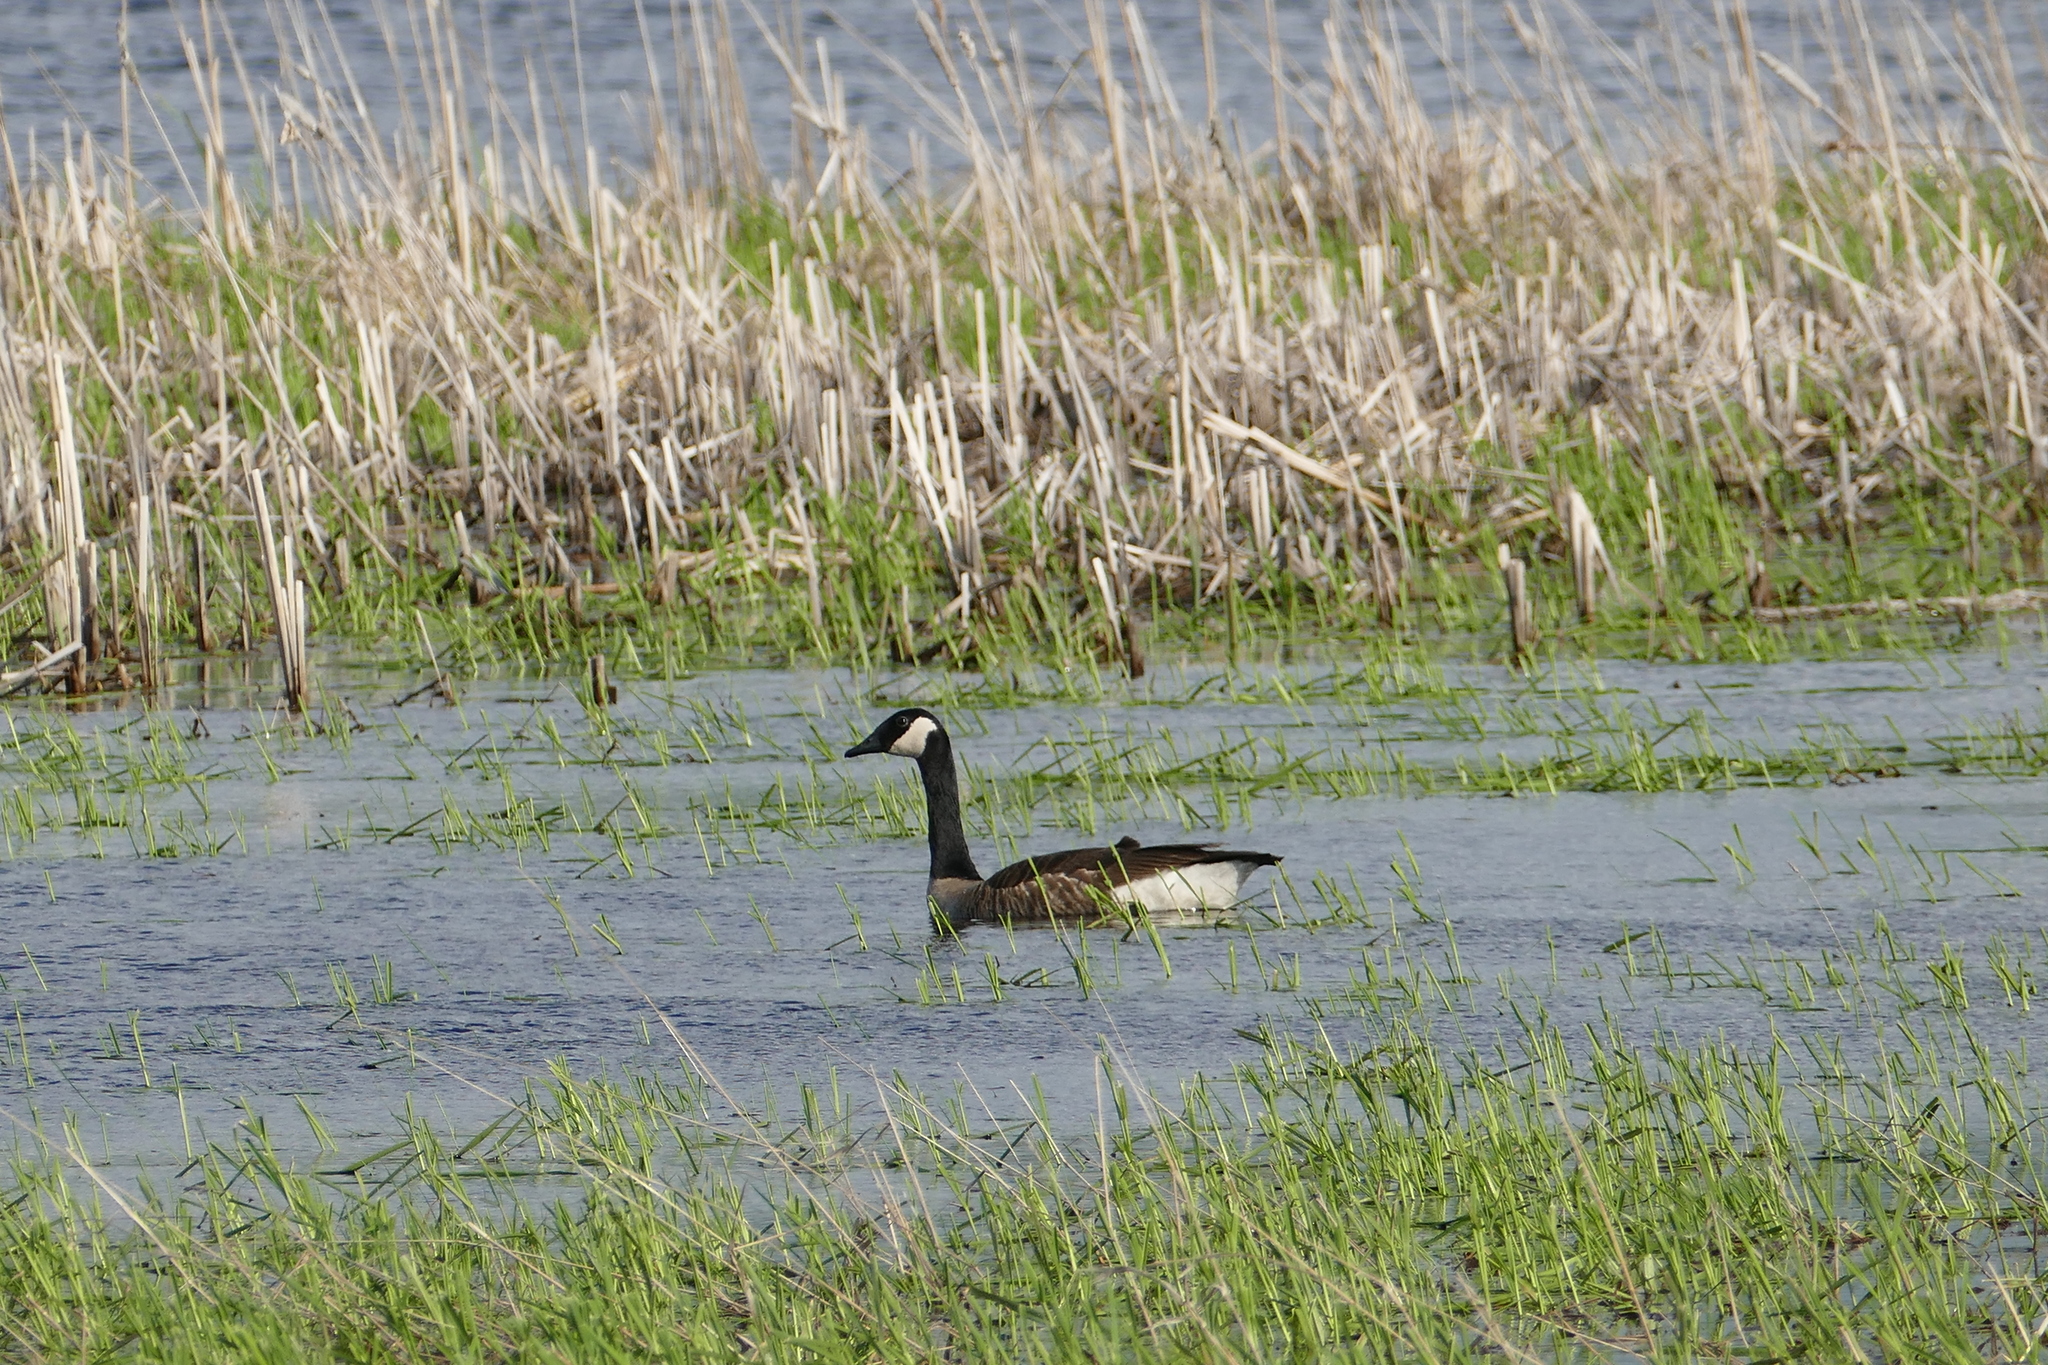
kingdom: Animalia
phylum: Chordata
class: Aves
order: Anseriformes
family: Anatidae
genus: Branta
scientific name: Branta canadensis
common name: Canada goose
